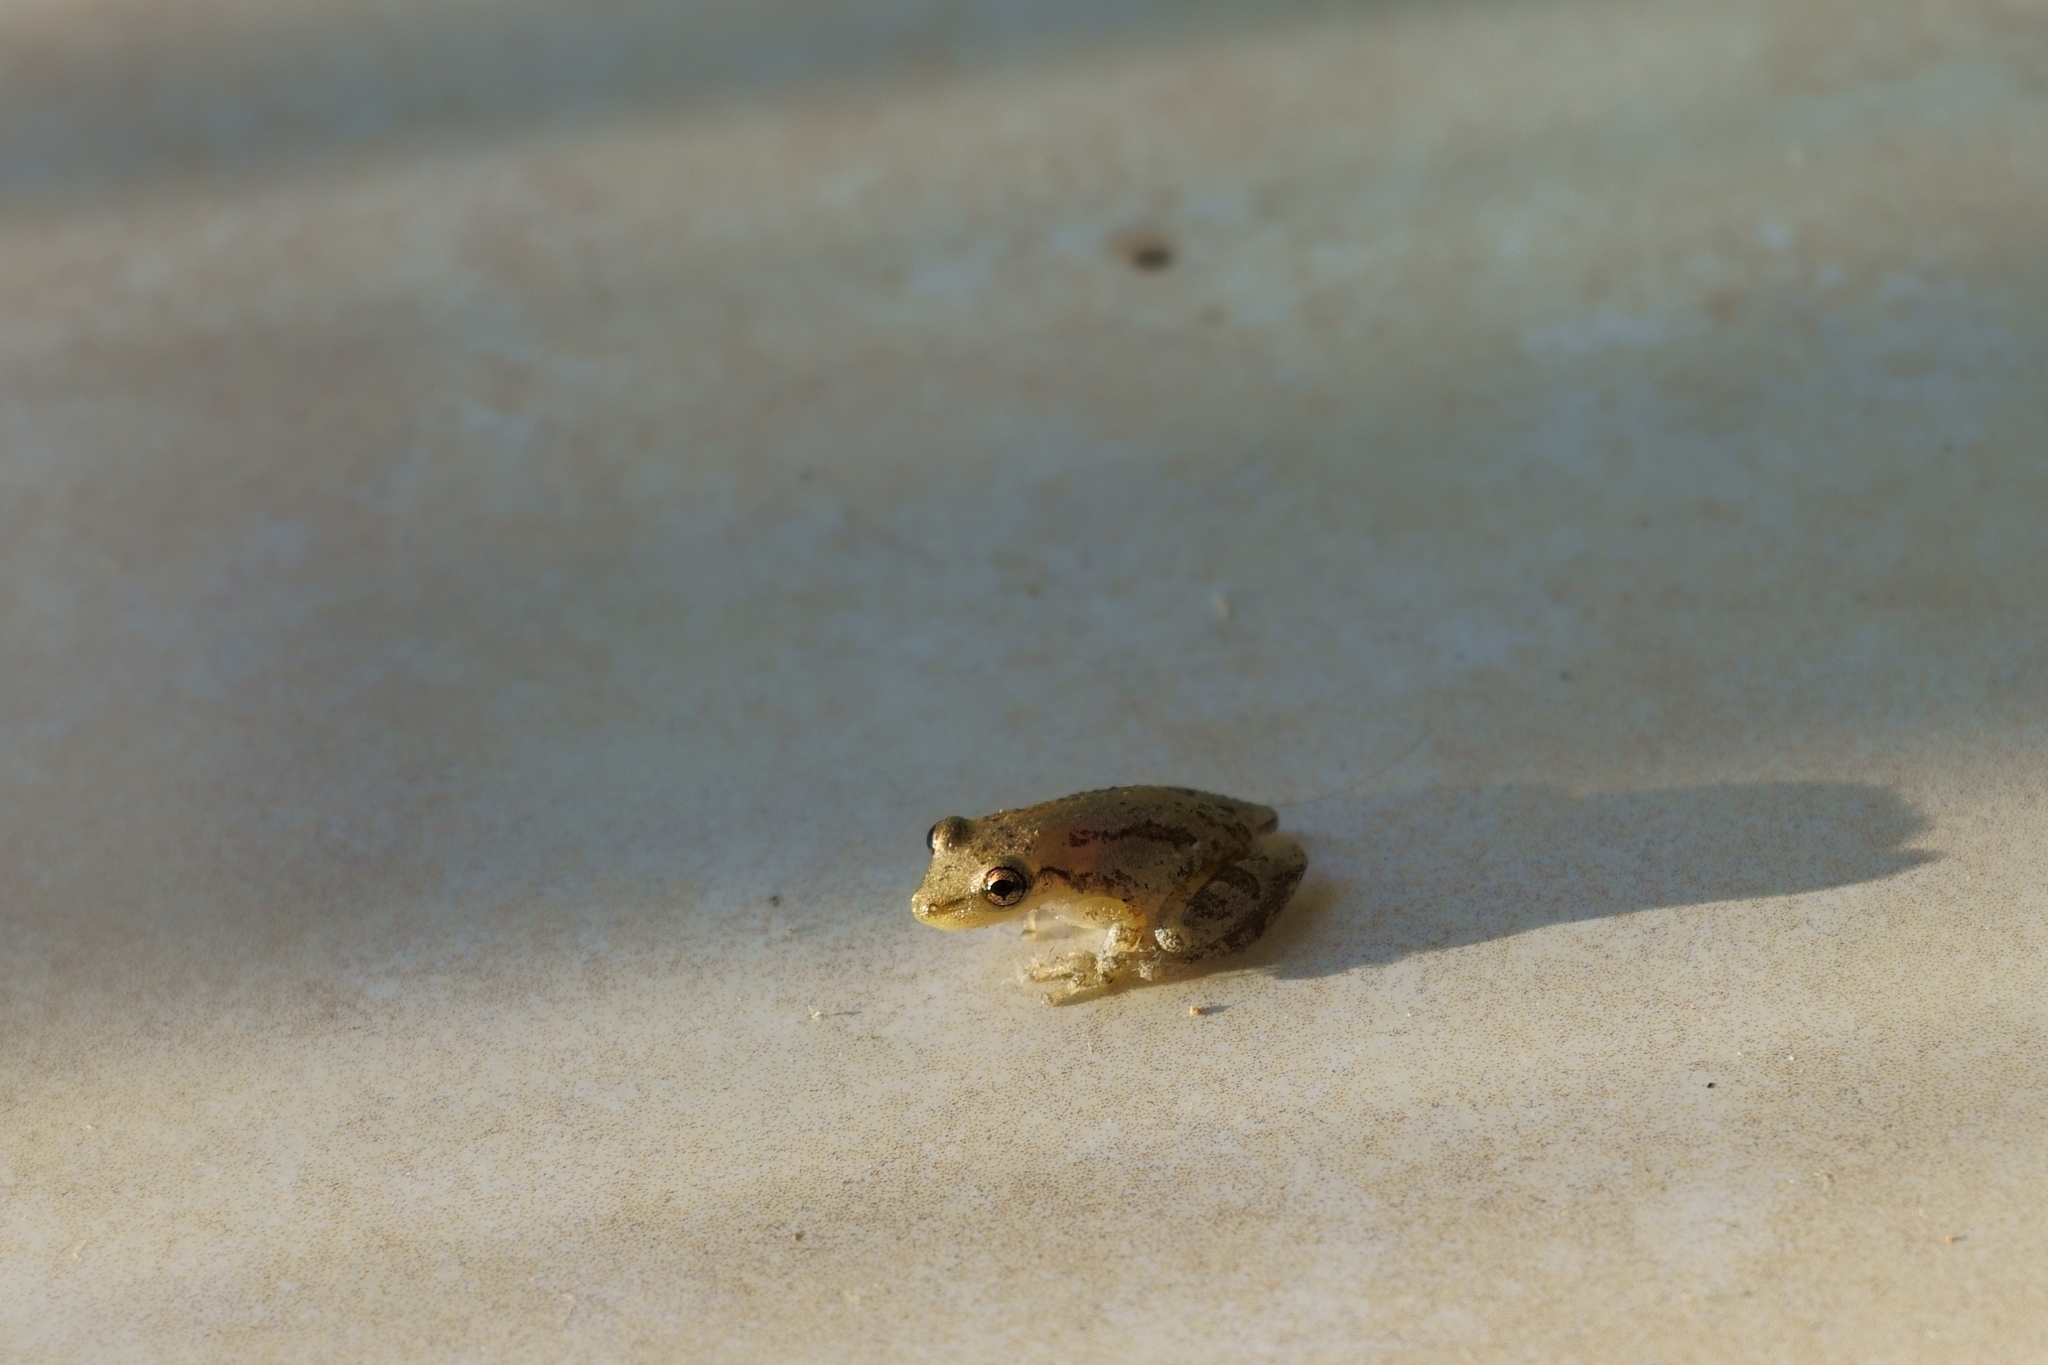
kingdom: Animalia
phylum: Chordata
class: Amphibia
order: Anura
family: Hylidae
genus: Scinax
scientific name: Scinax staufferi
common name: Stauffer's long-nosed treefrog
